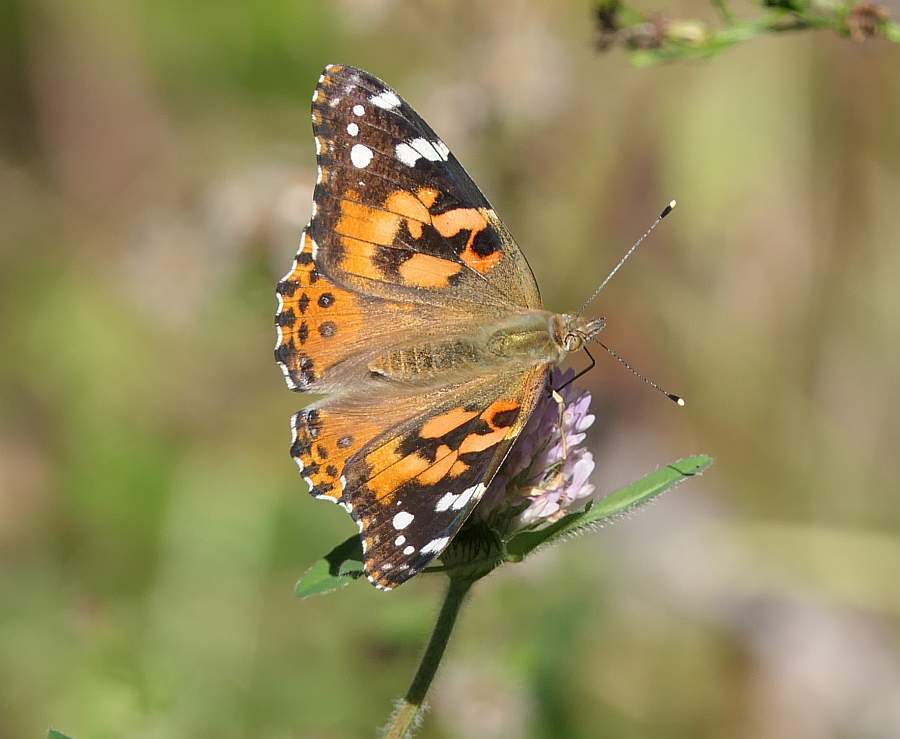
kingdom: Animalia
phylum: Arthropoda
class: Insecta
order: Lepidoptera
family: Nymphalidae
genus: Vanessa
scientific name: Vanessa cardui
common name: Painted lady
